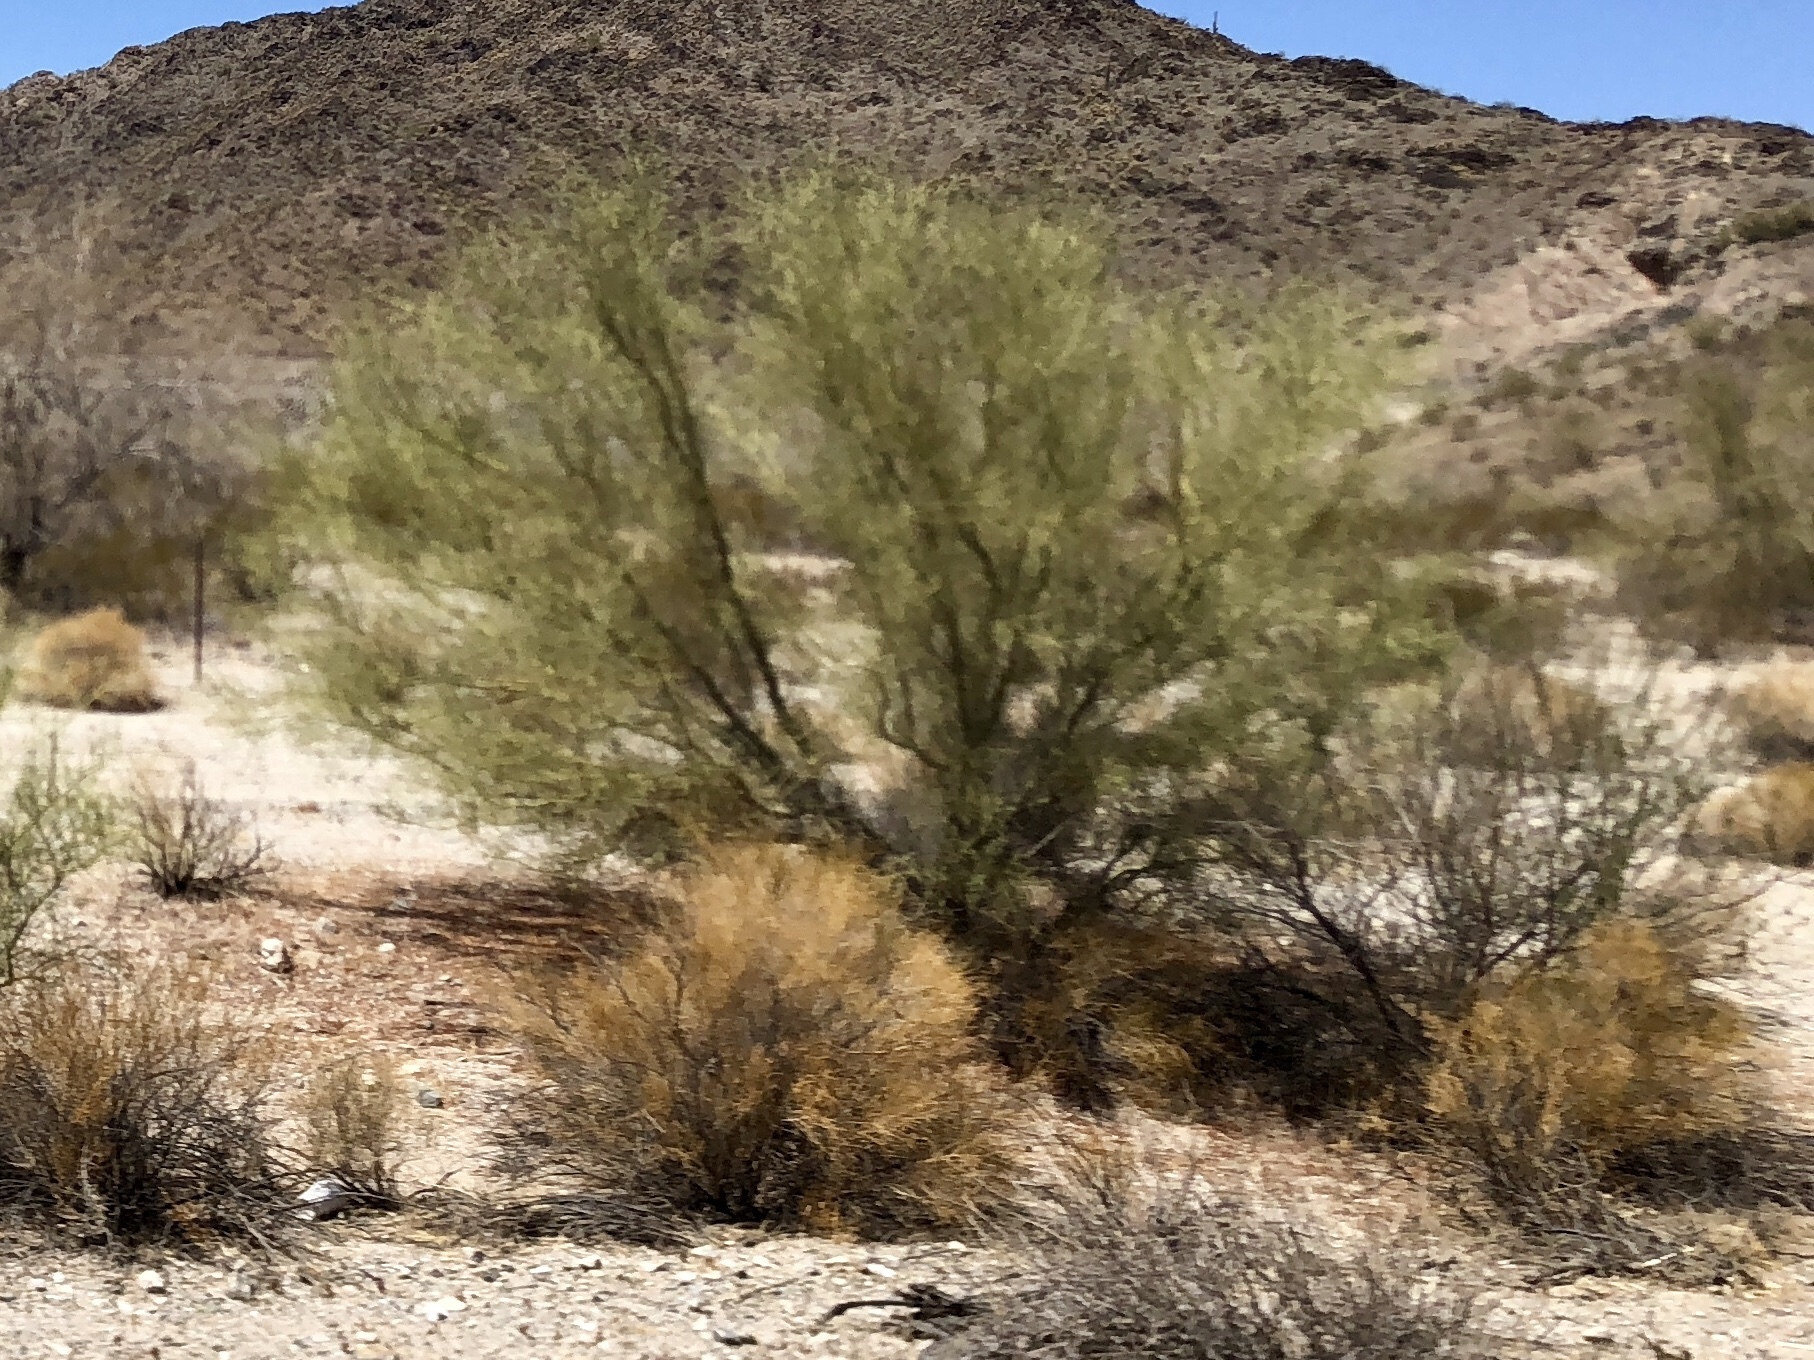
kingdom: Plantae
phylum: Tracheophyta
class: Magnoliopsida
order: Fabales
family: Fabaceae
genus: Parkinsonia
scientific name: Parkinsonia microphylla
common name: Yellow paloverde
